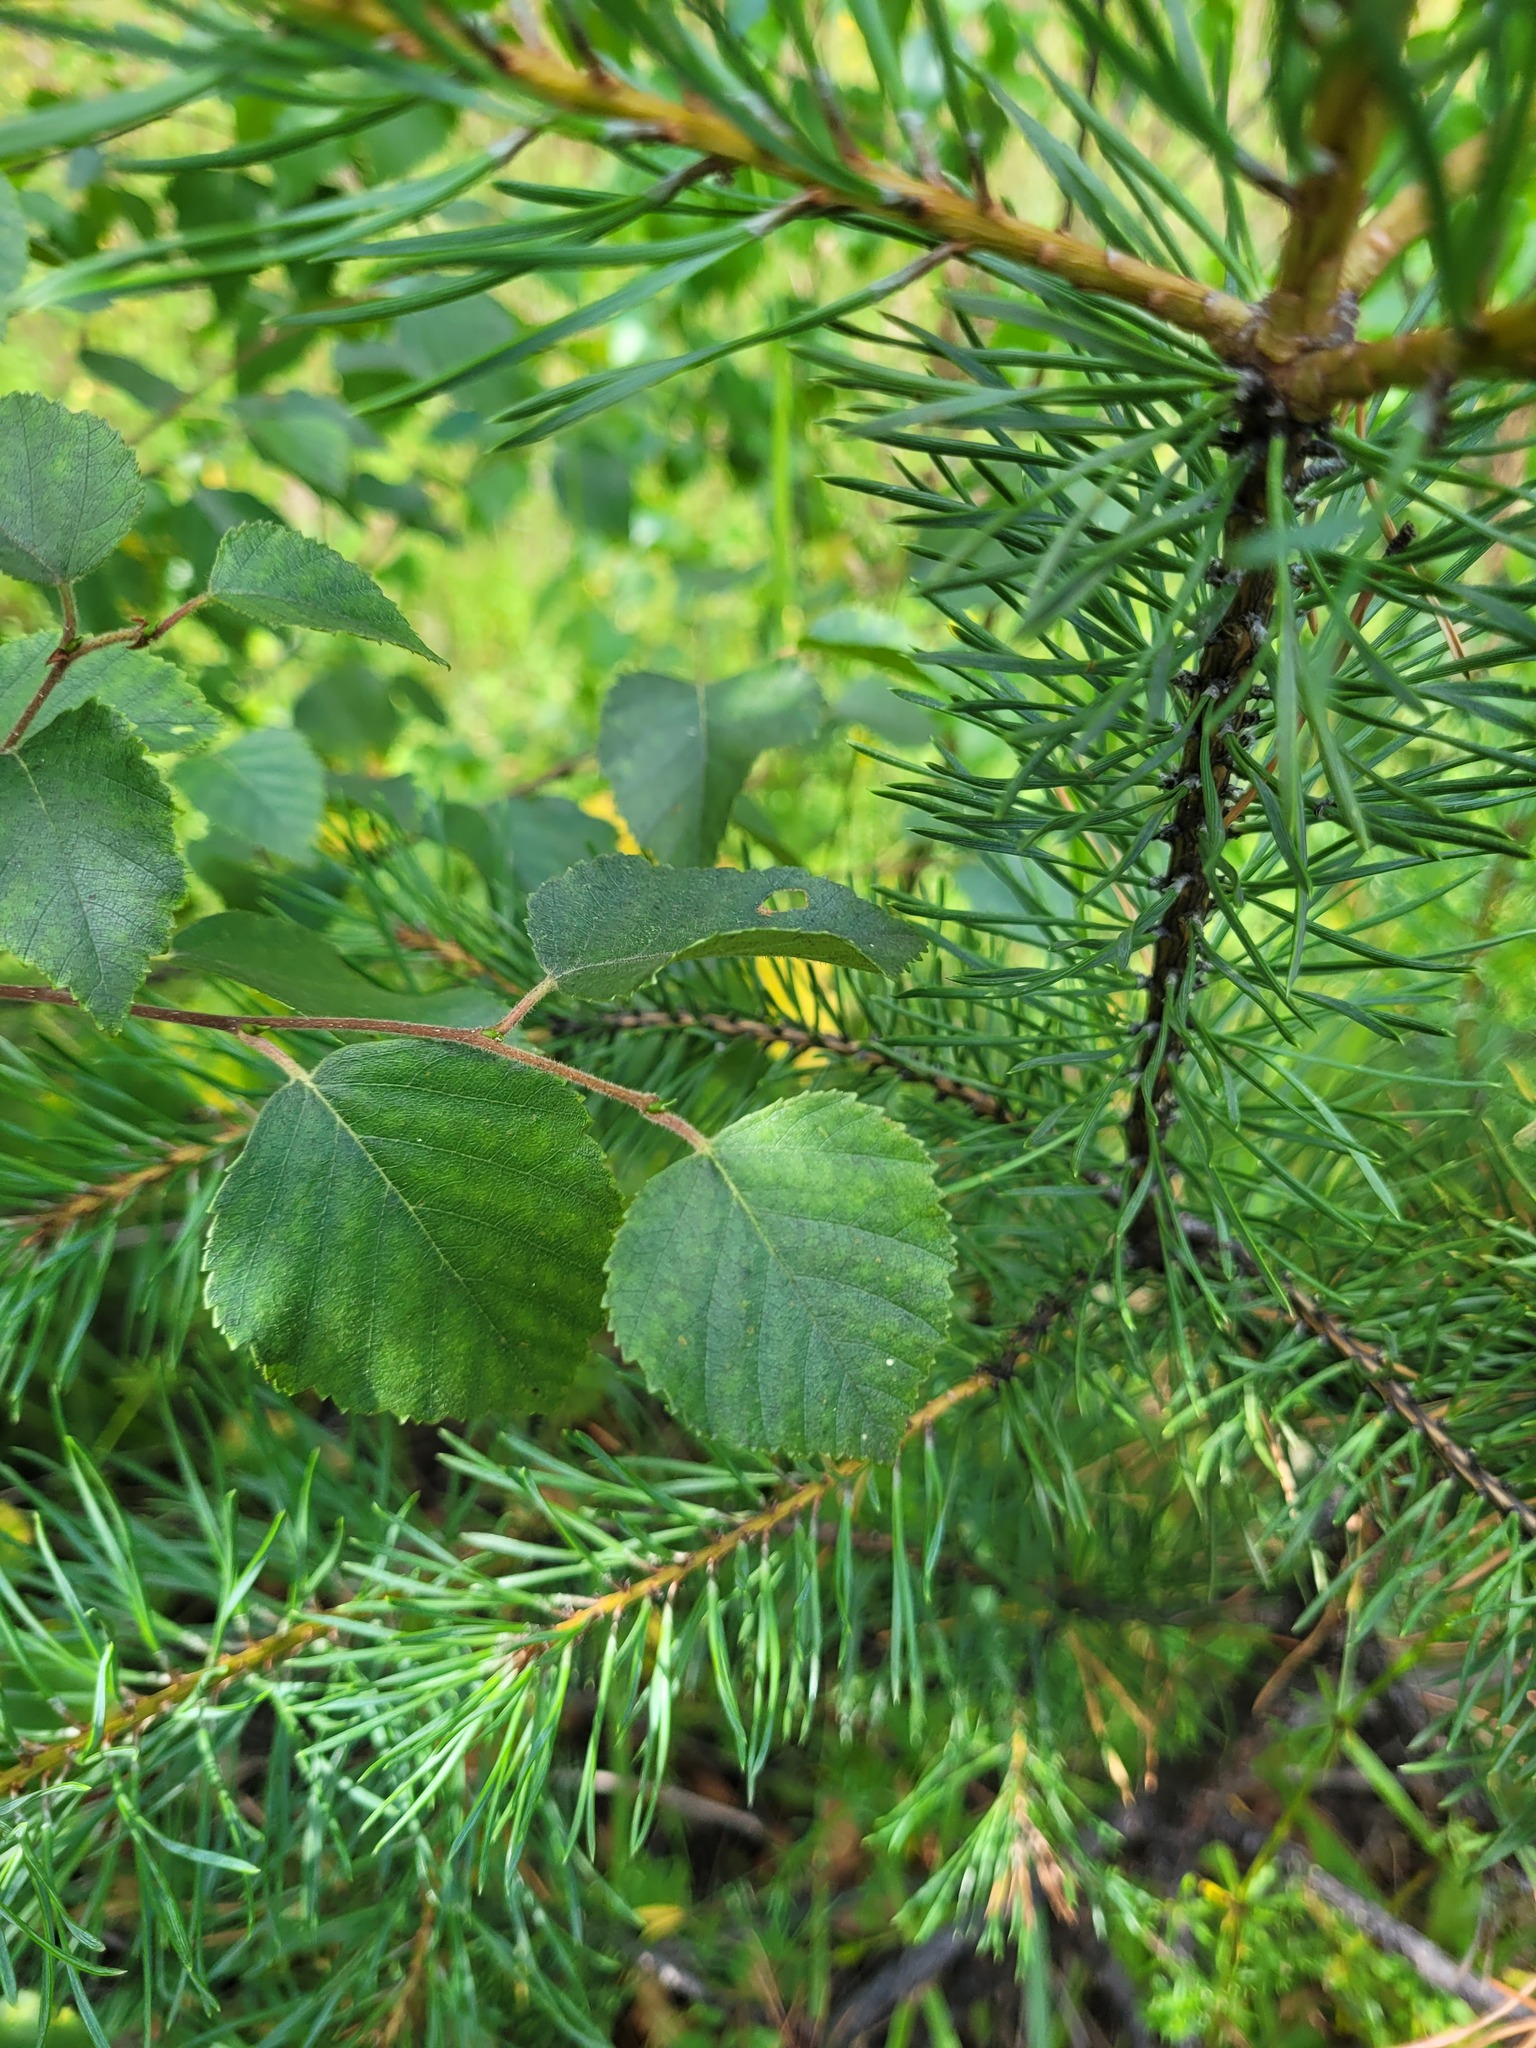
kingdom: Plantae
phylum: Tracheophyta
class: Magnoliopsida
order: Fagales
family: Betulaceae
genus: Betula
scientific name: Betula pubescens
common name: Downy birch
